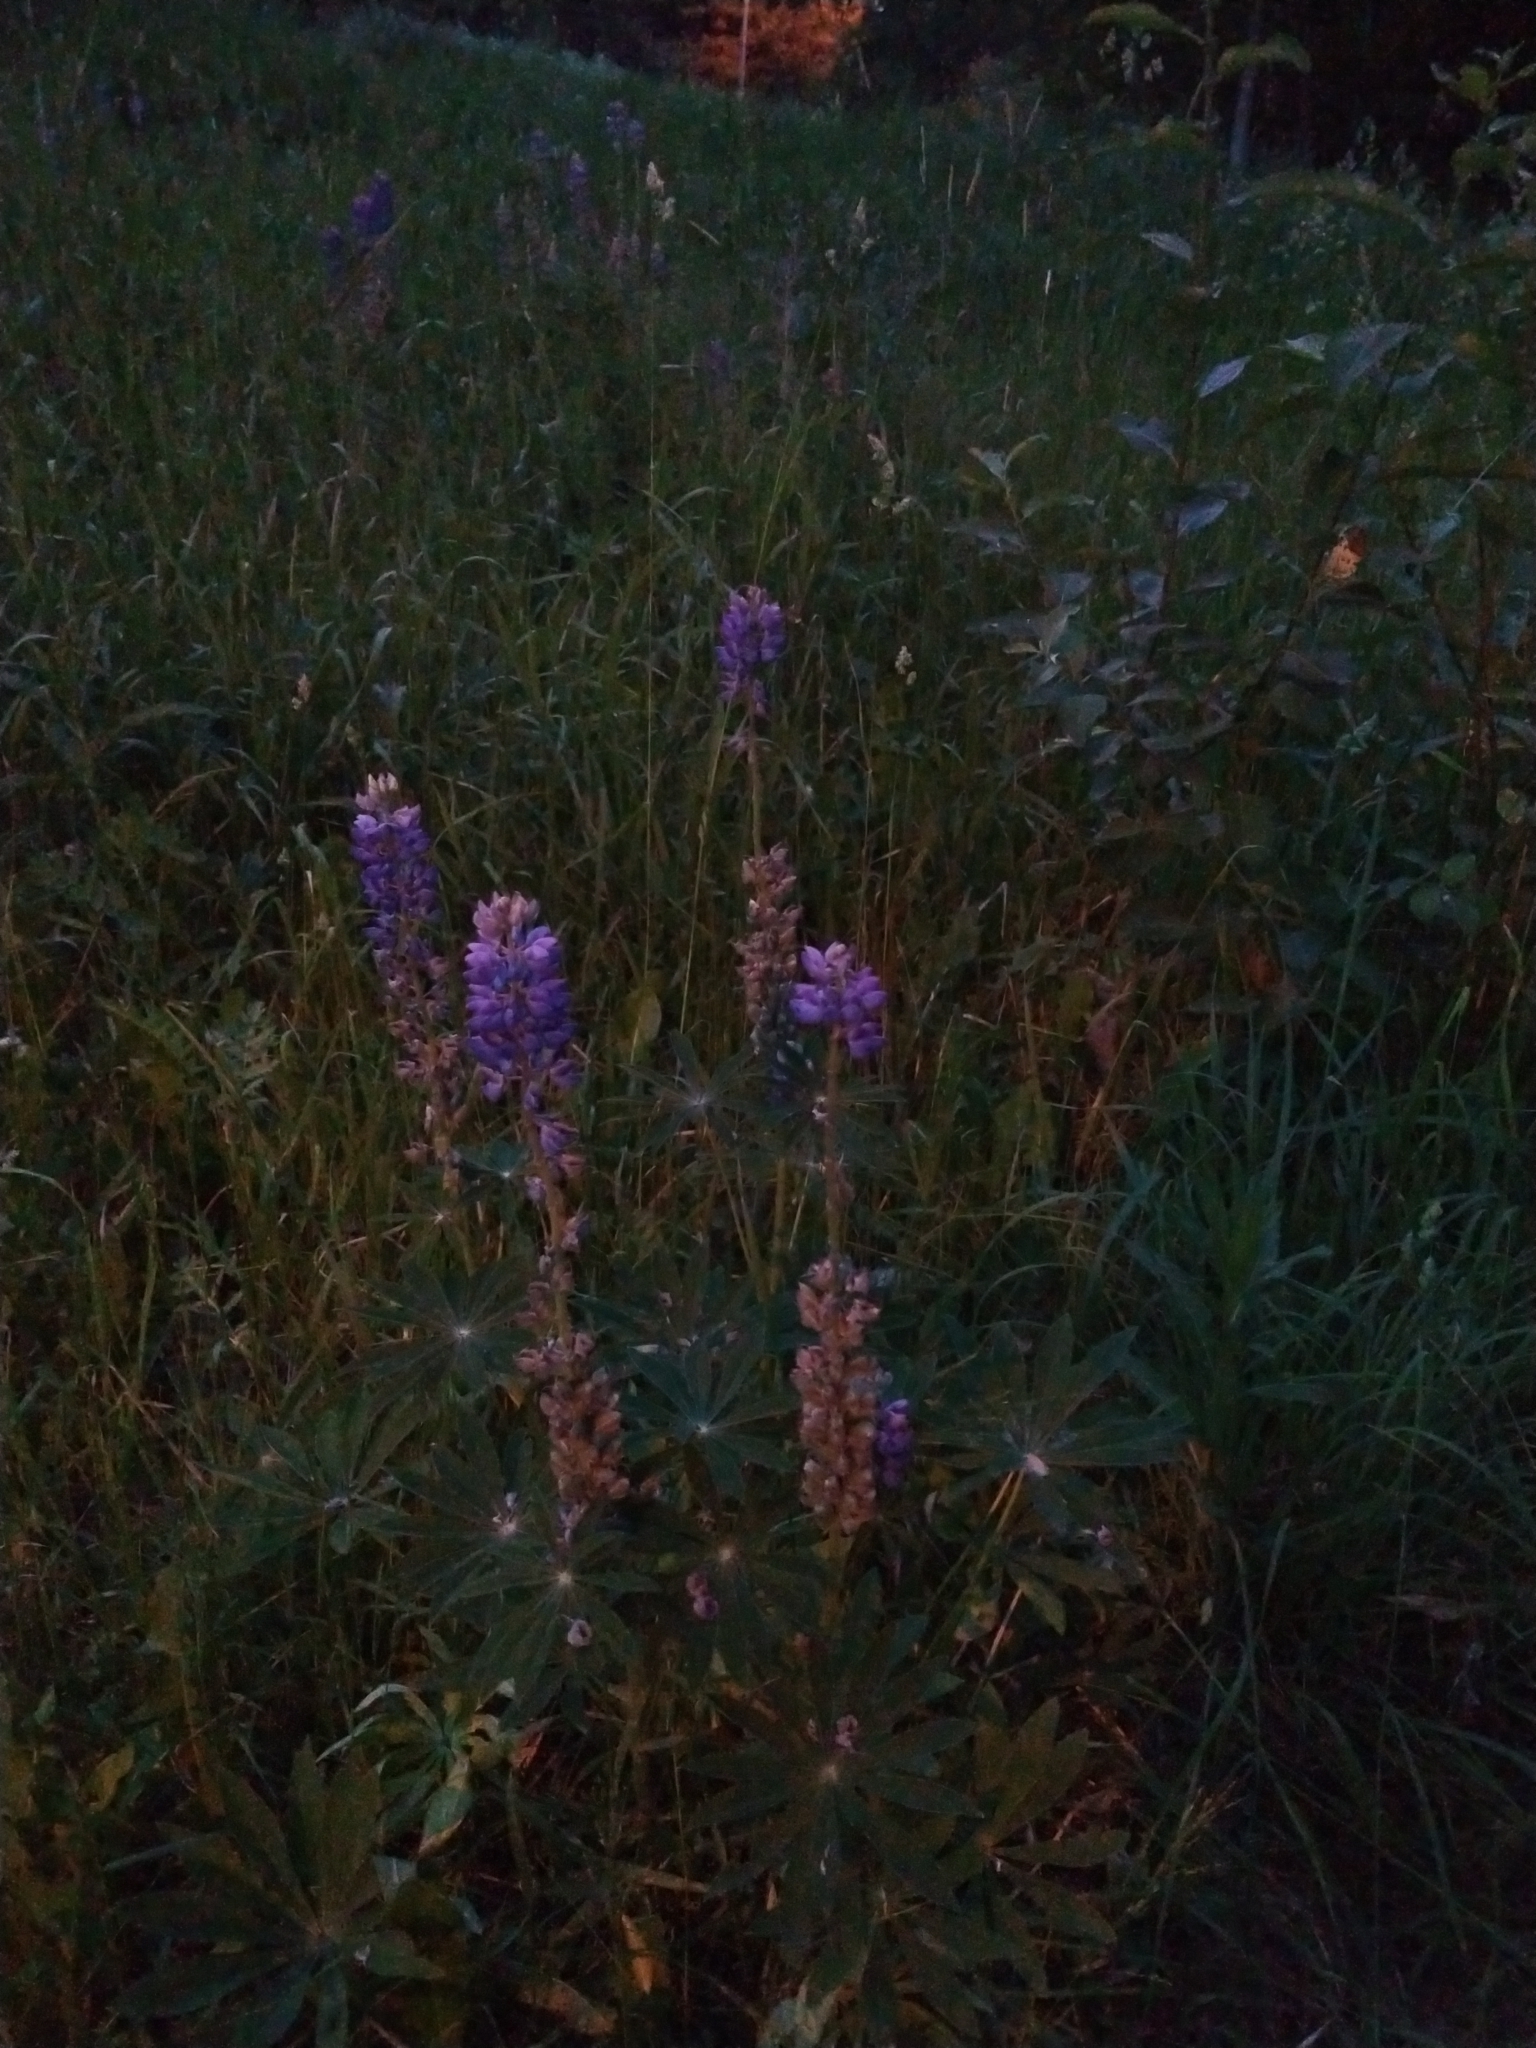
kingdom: Plantae
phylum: Tracheophyta
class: Magnoliopsida
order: Fabales
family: Fabaceae
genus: Lupinus
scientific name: Lupinus polyphyllus
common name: Garden lupin
